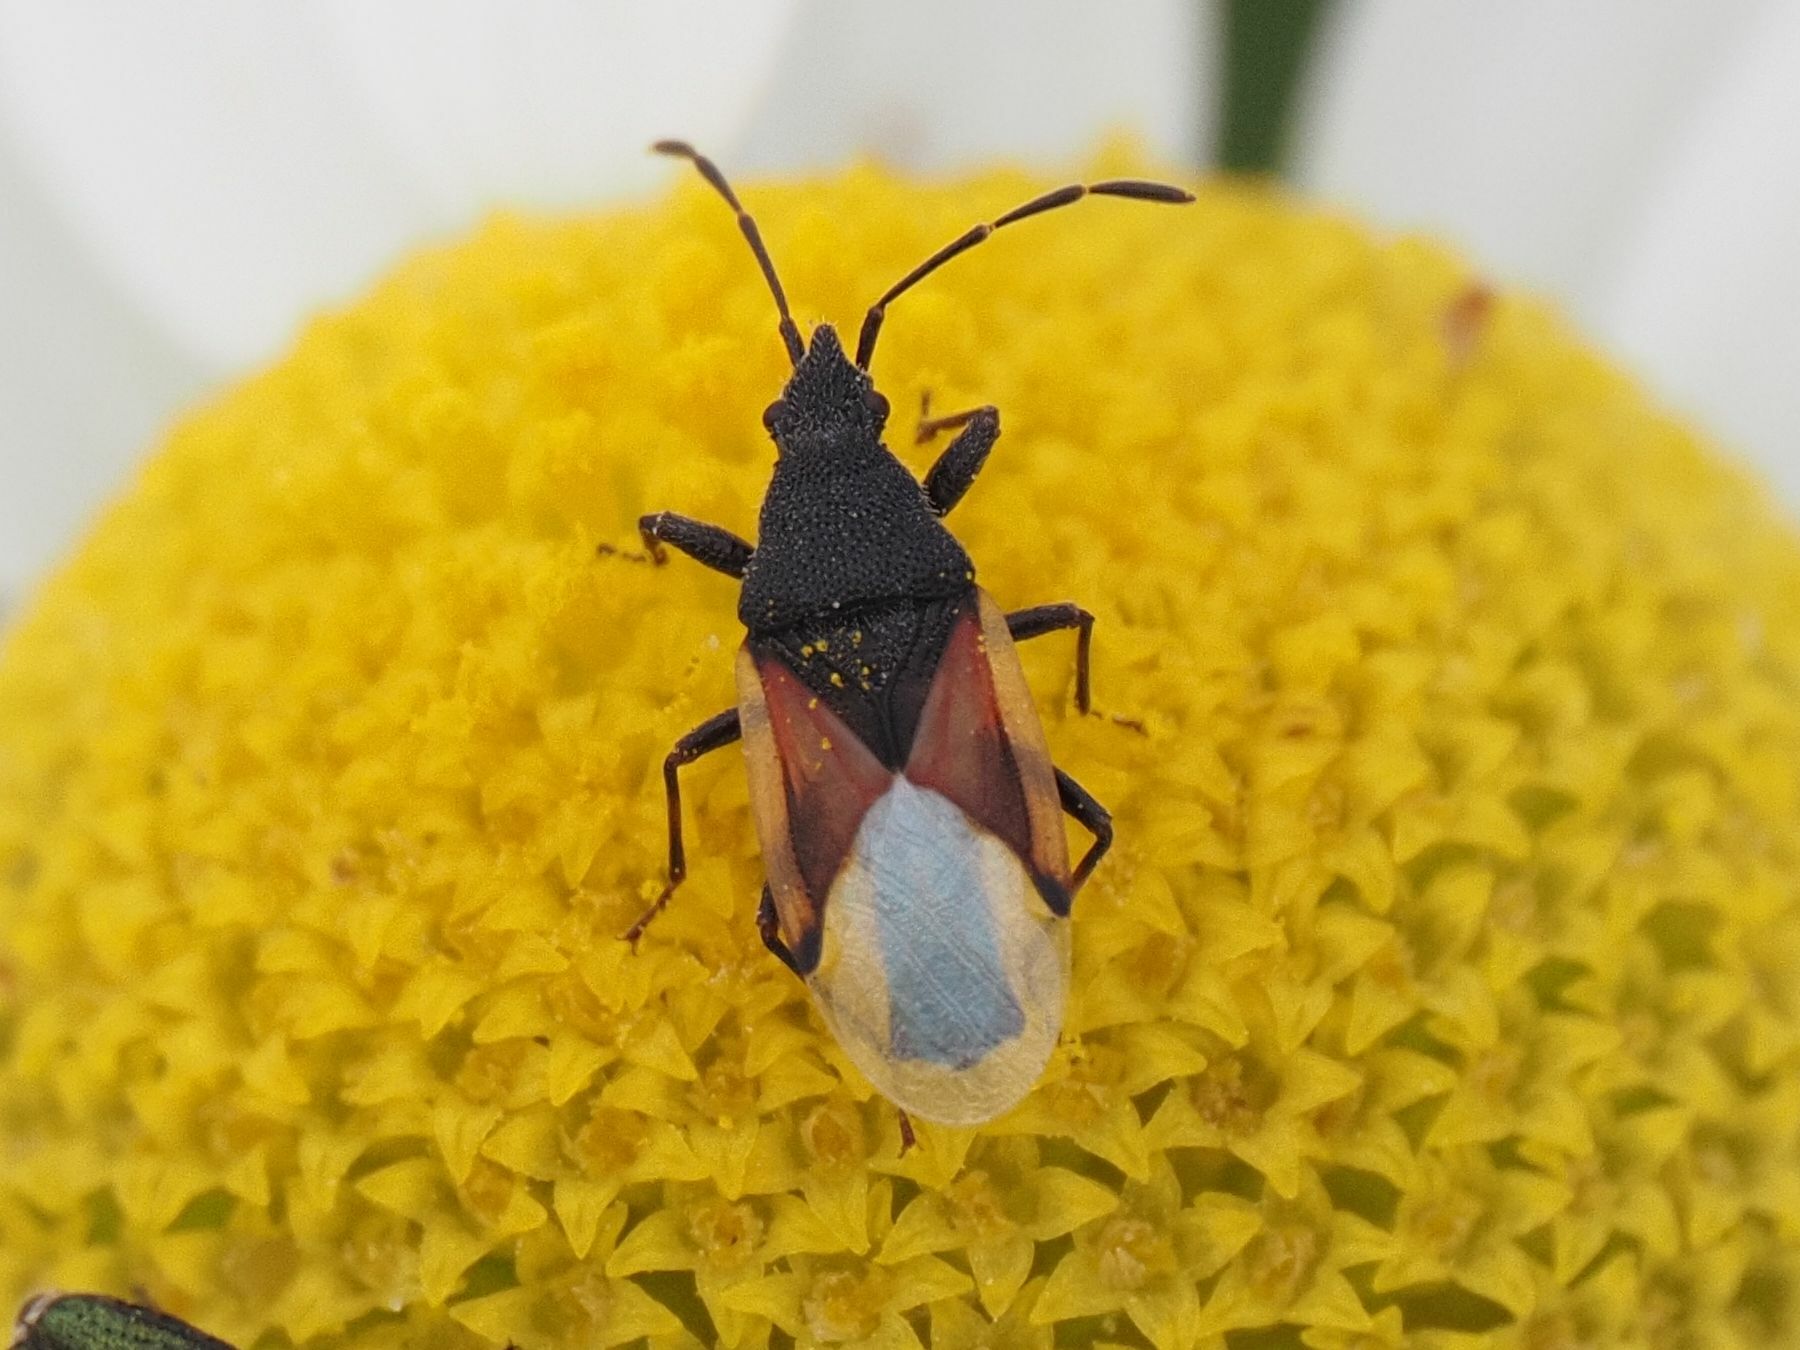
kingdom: Animalia
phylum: Arthropoda
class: Insecta
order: Hemiptera
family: Oxycarenidae
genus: Oxycarenus
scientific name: Oxycarenus lavaterae
